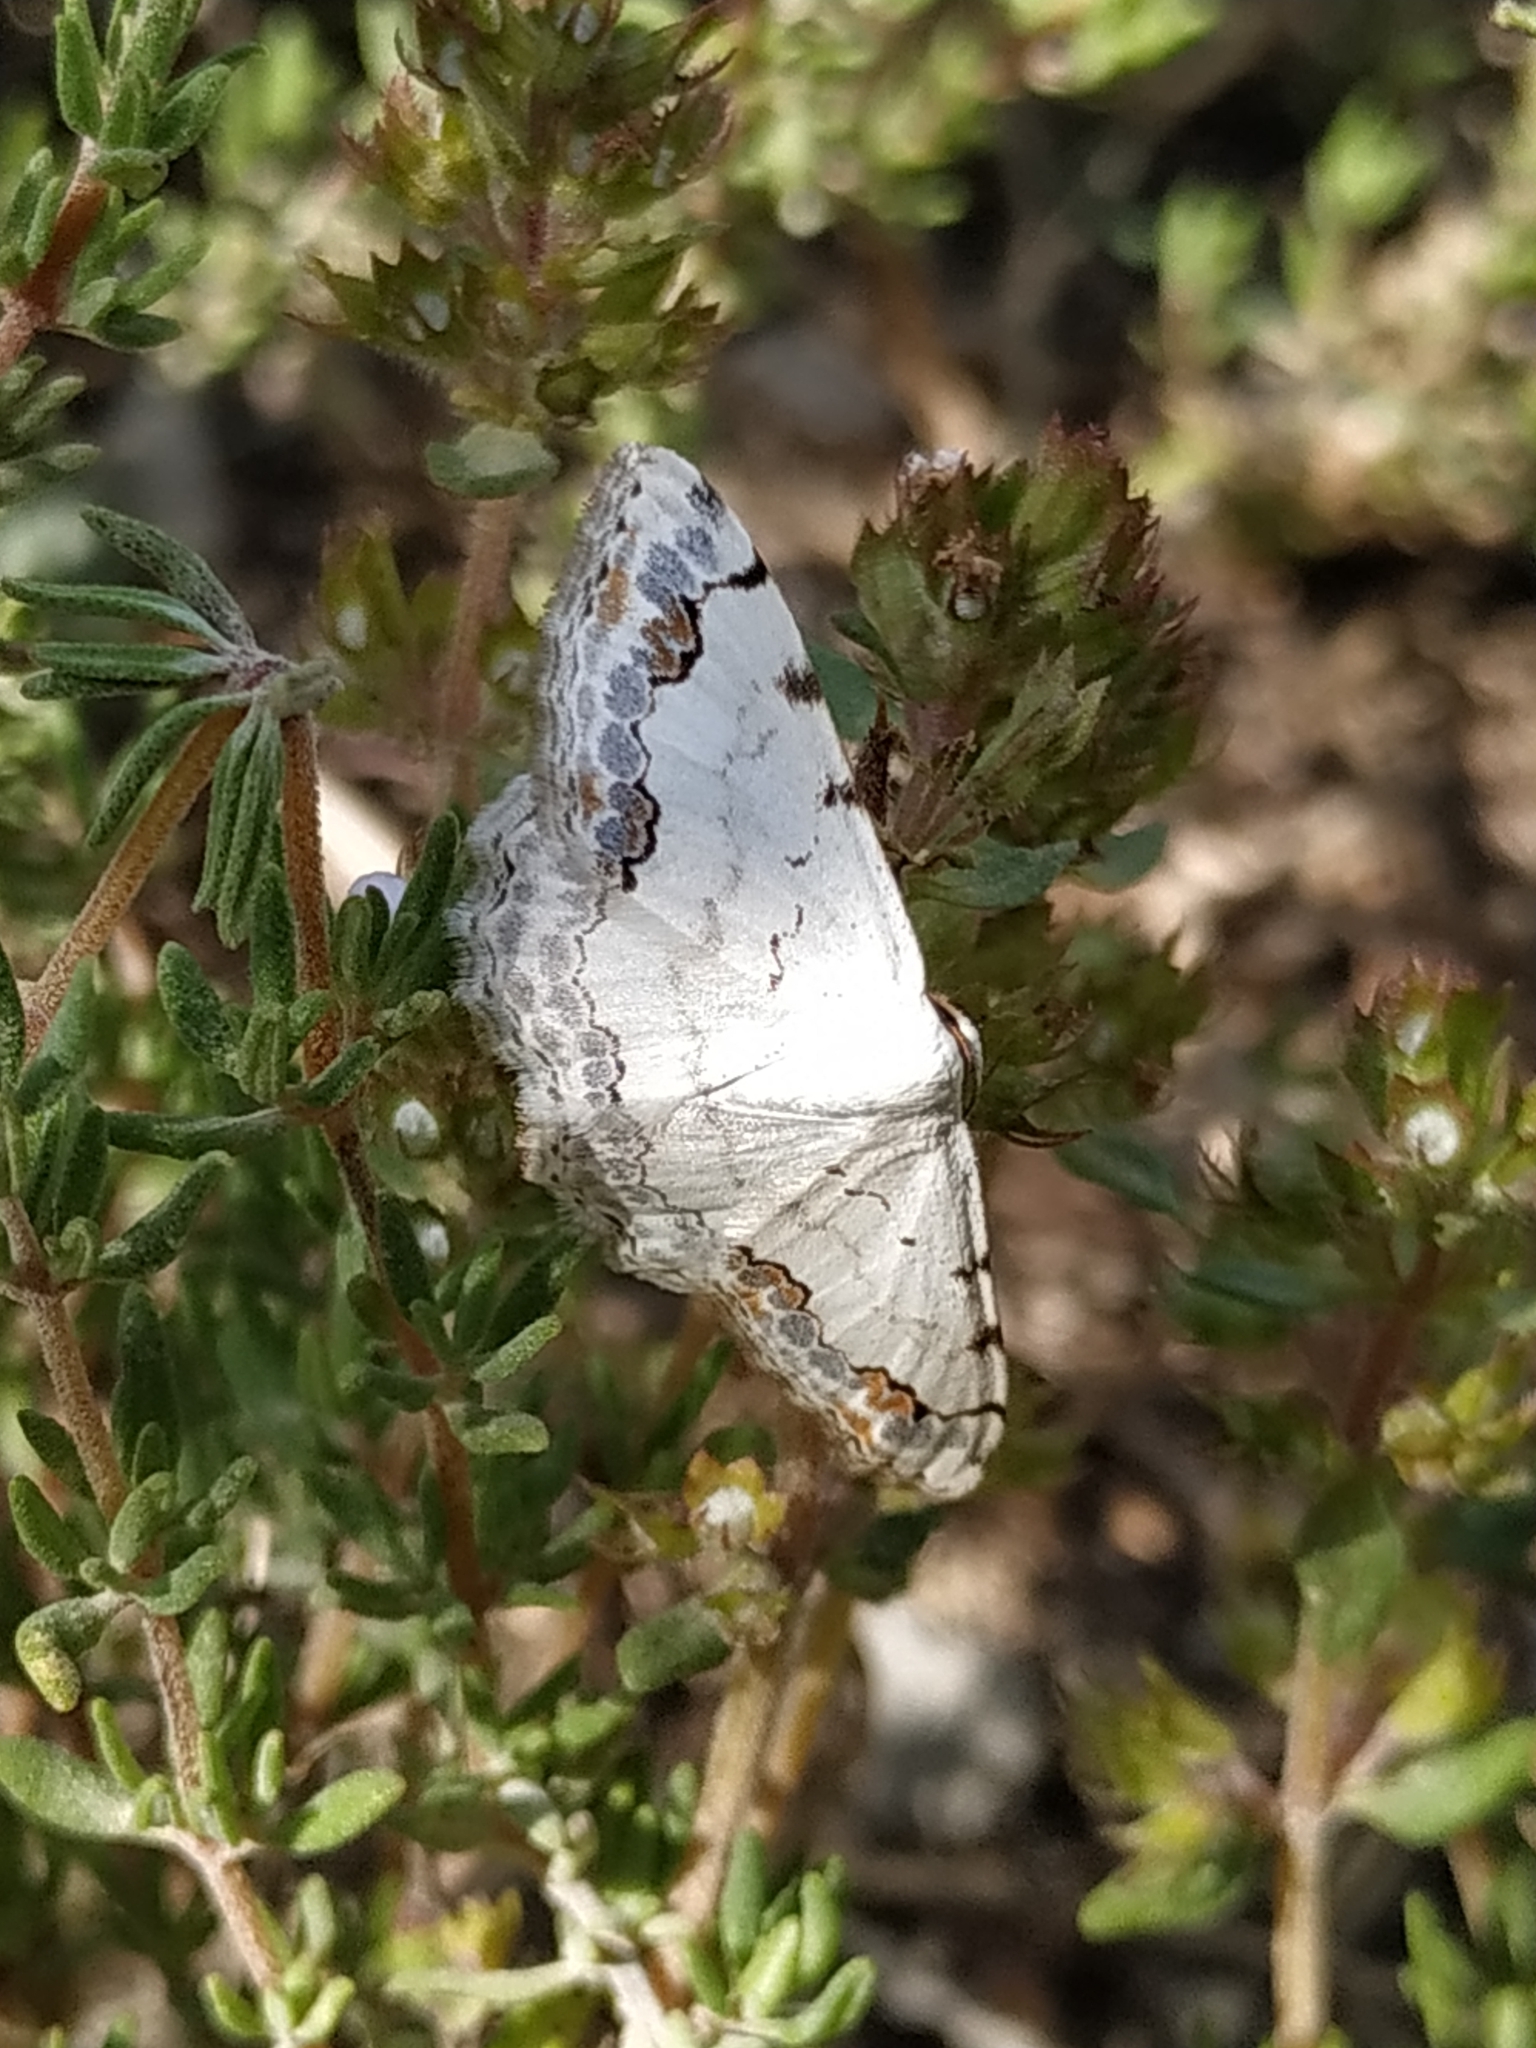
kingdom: Animalia
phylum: Arthropoda
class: Insecta
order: Lepidoptera
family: Geometridae
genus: Scopula
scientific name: Scopula decorata
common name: Middle lace border
